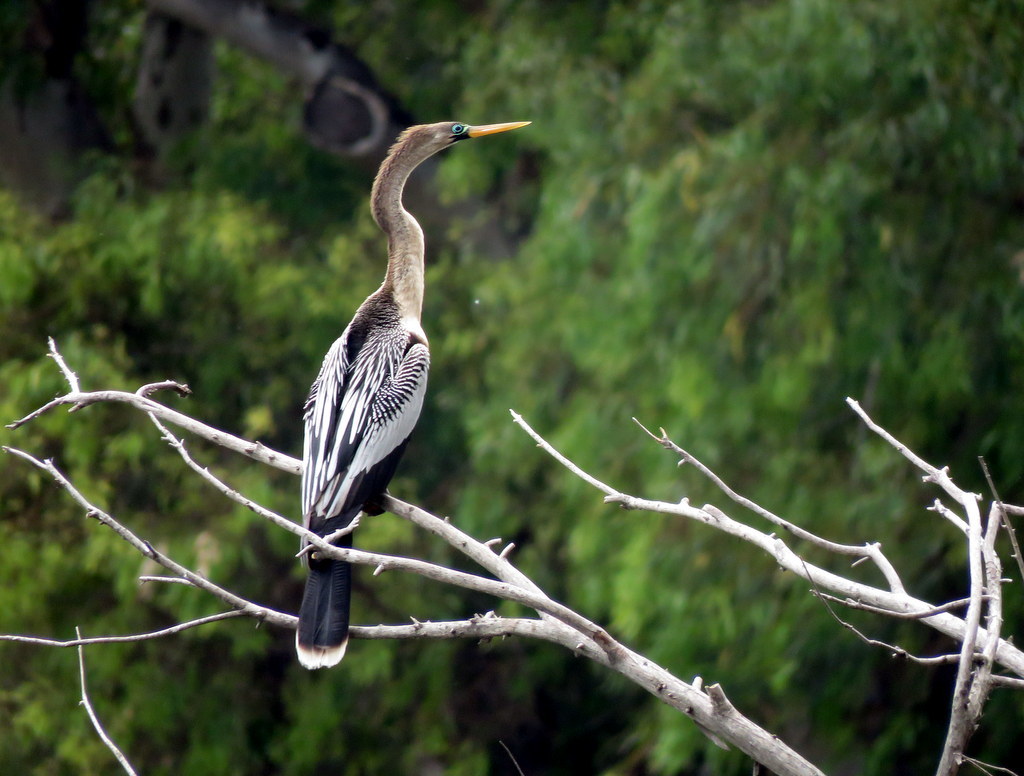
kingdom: Animalia
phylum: Chordata
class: Aves
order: Suliformes
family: Anhingidae
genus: Anhinga
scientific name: Anhinga anhinga
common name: Anhinga
